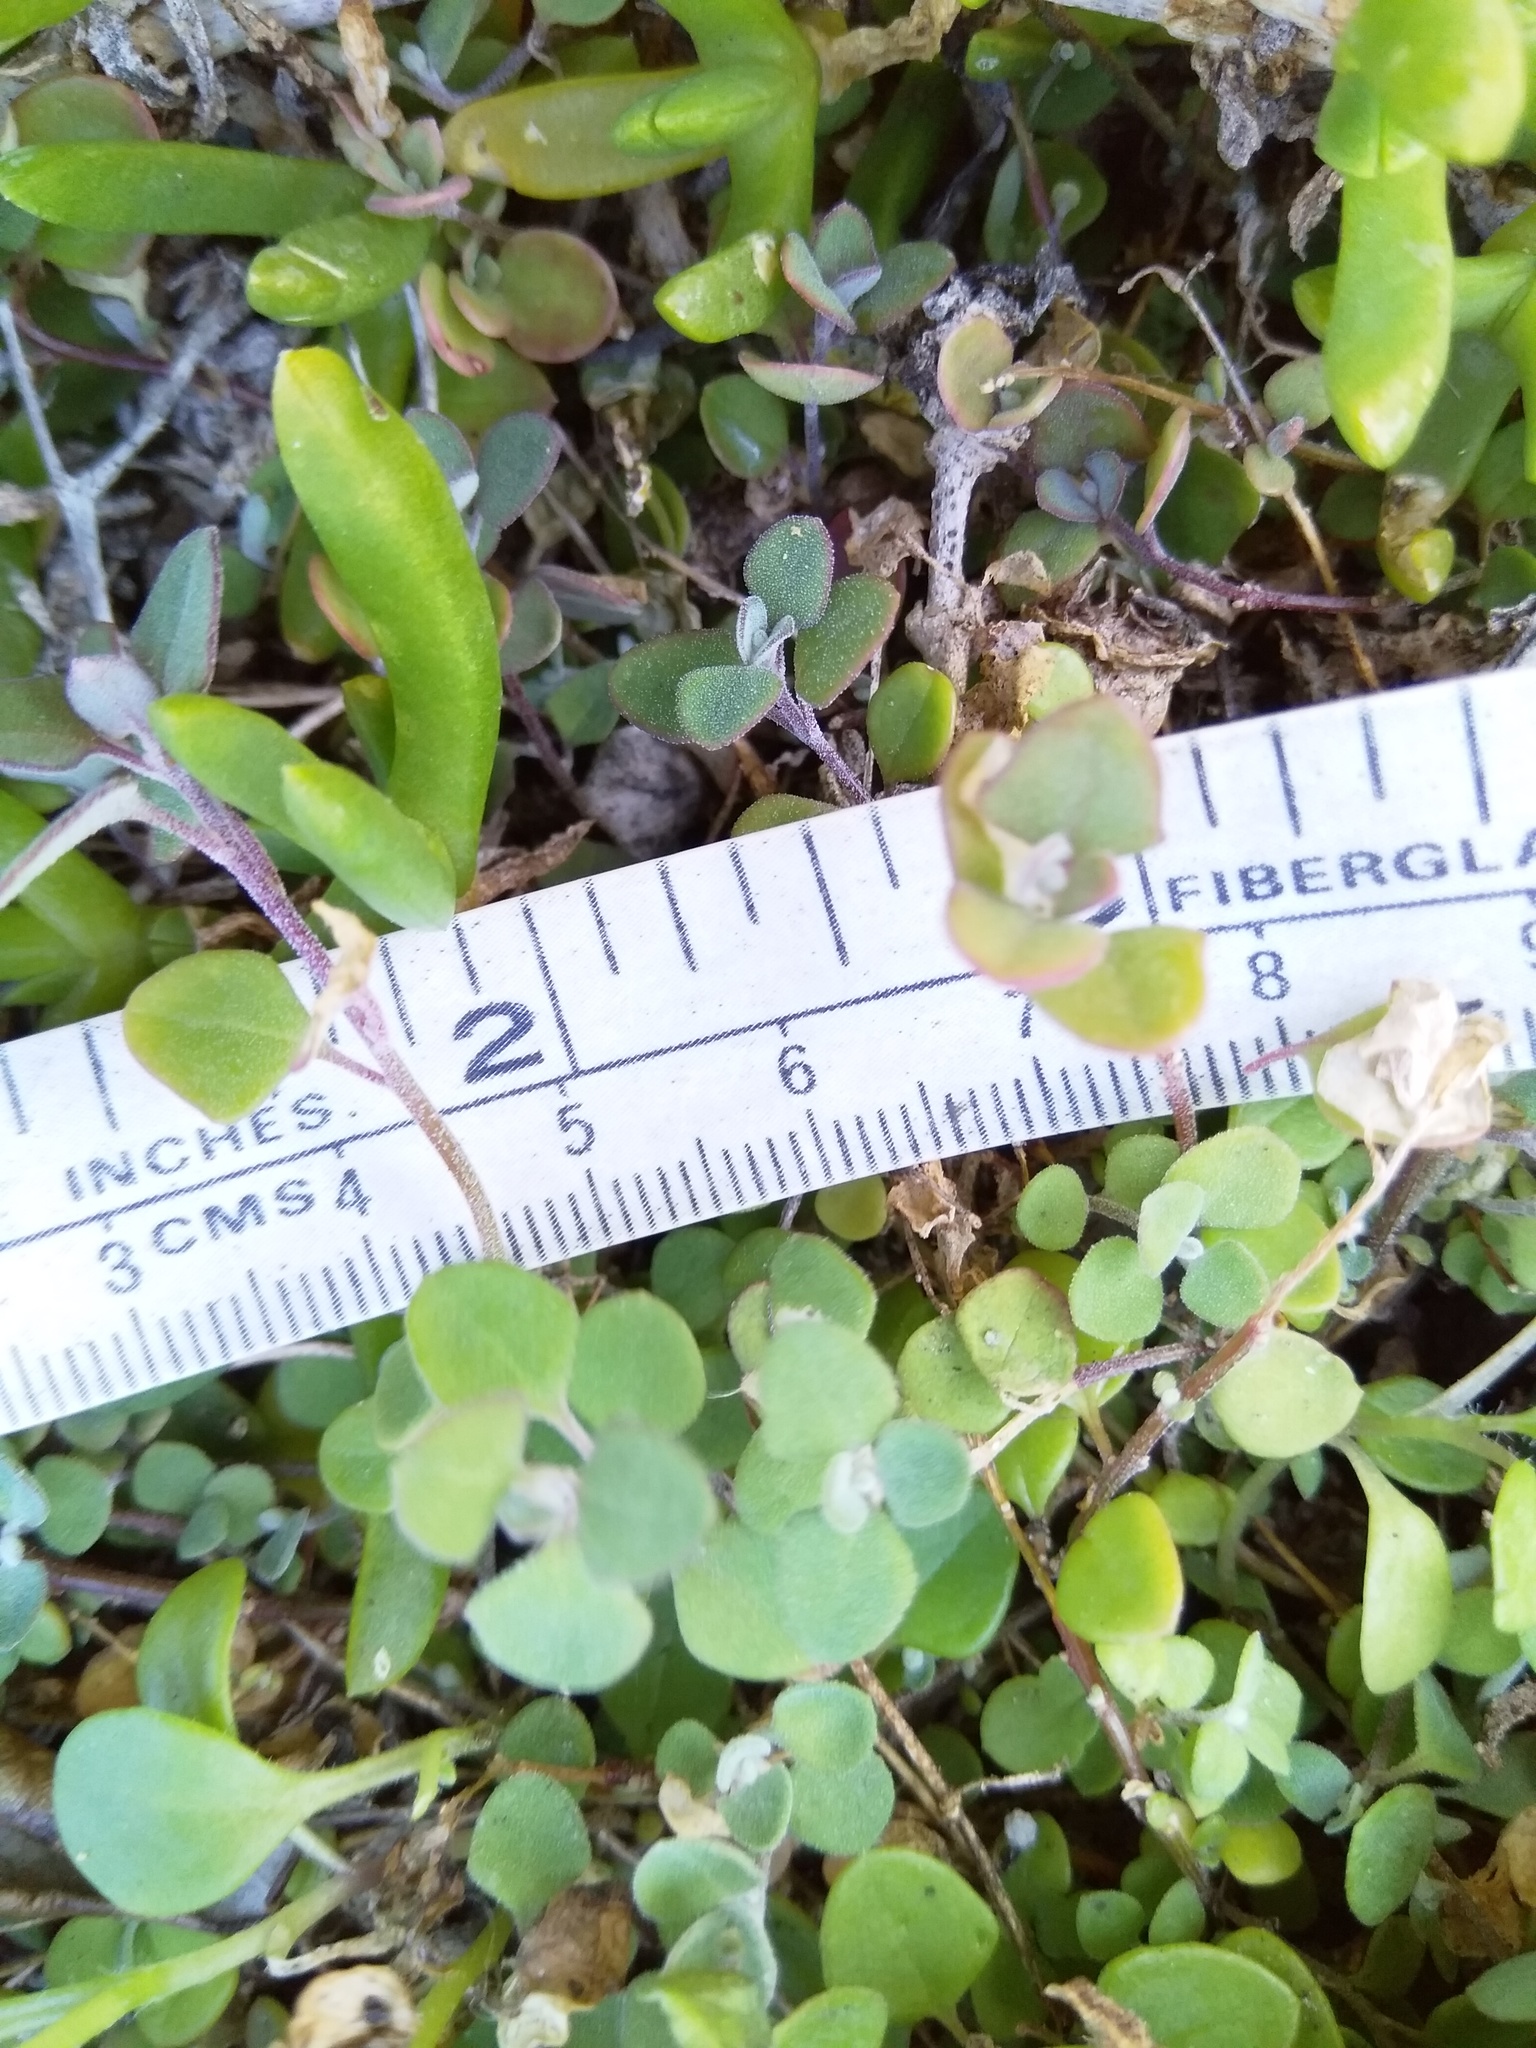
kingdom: Plantae
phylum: Tracheophyta
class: Magnoliopsida
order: Caryophyllales
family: Amaranthaceae
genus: Chenopodium
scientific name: Chenopodium allanii
